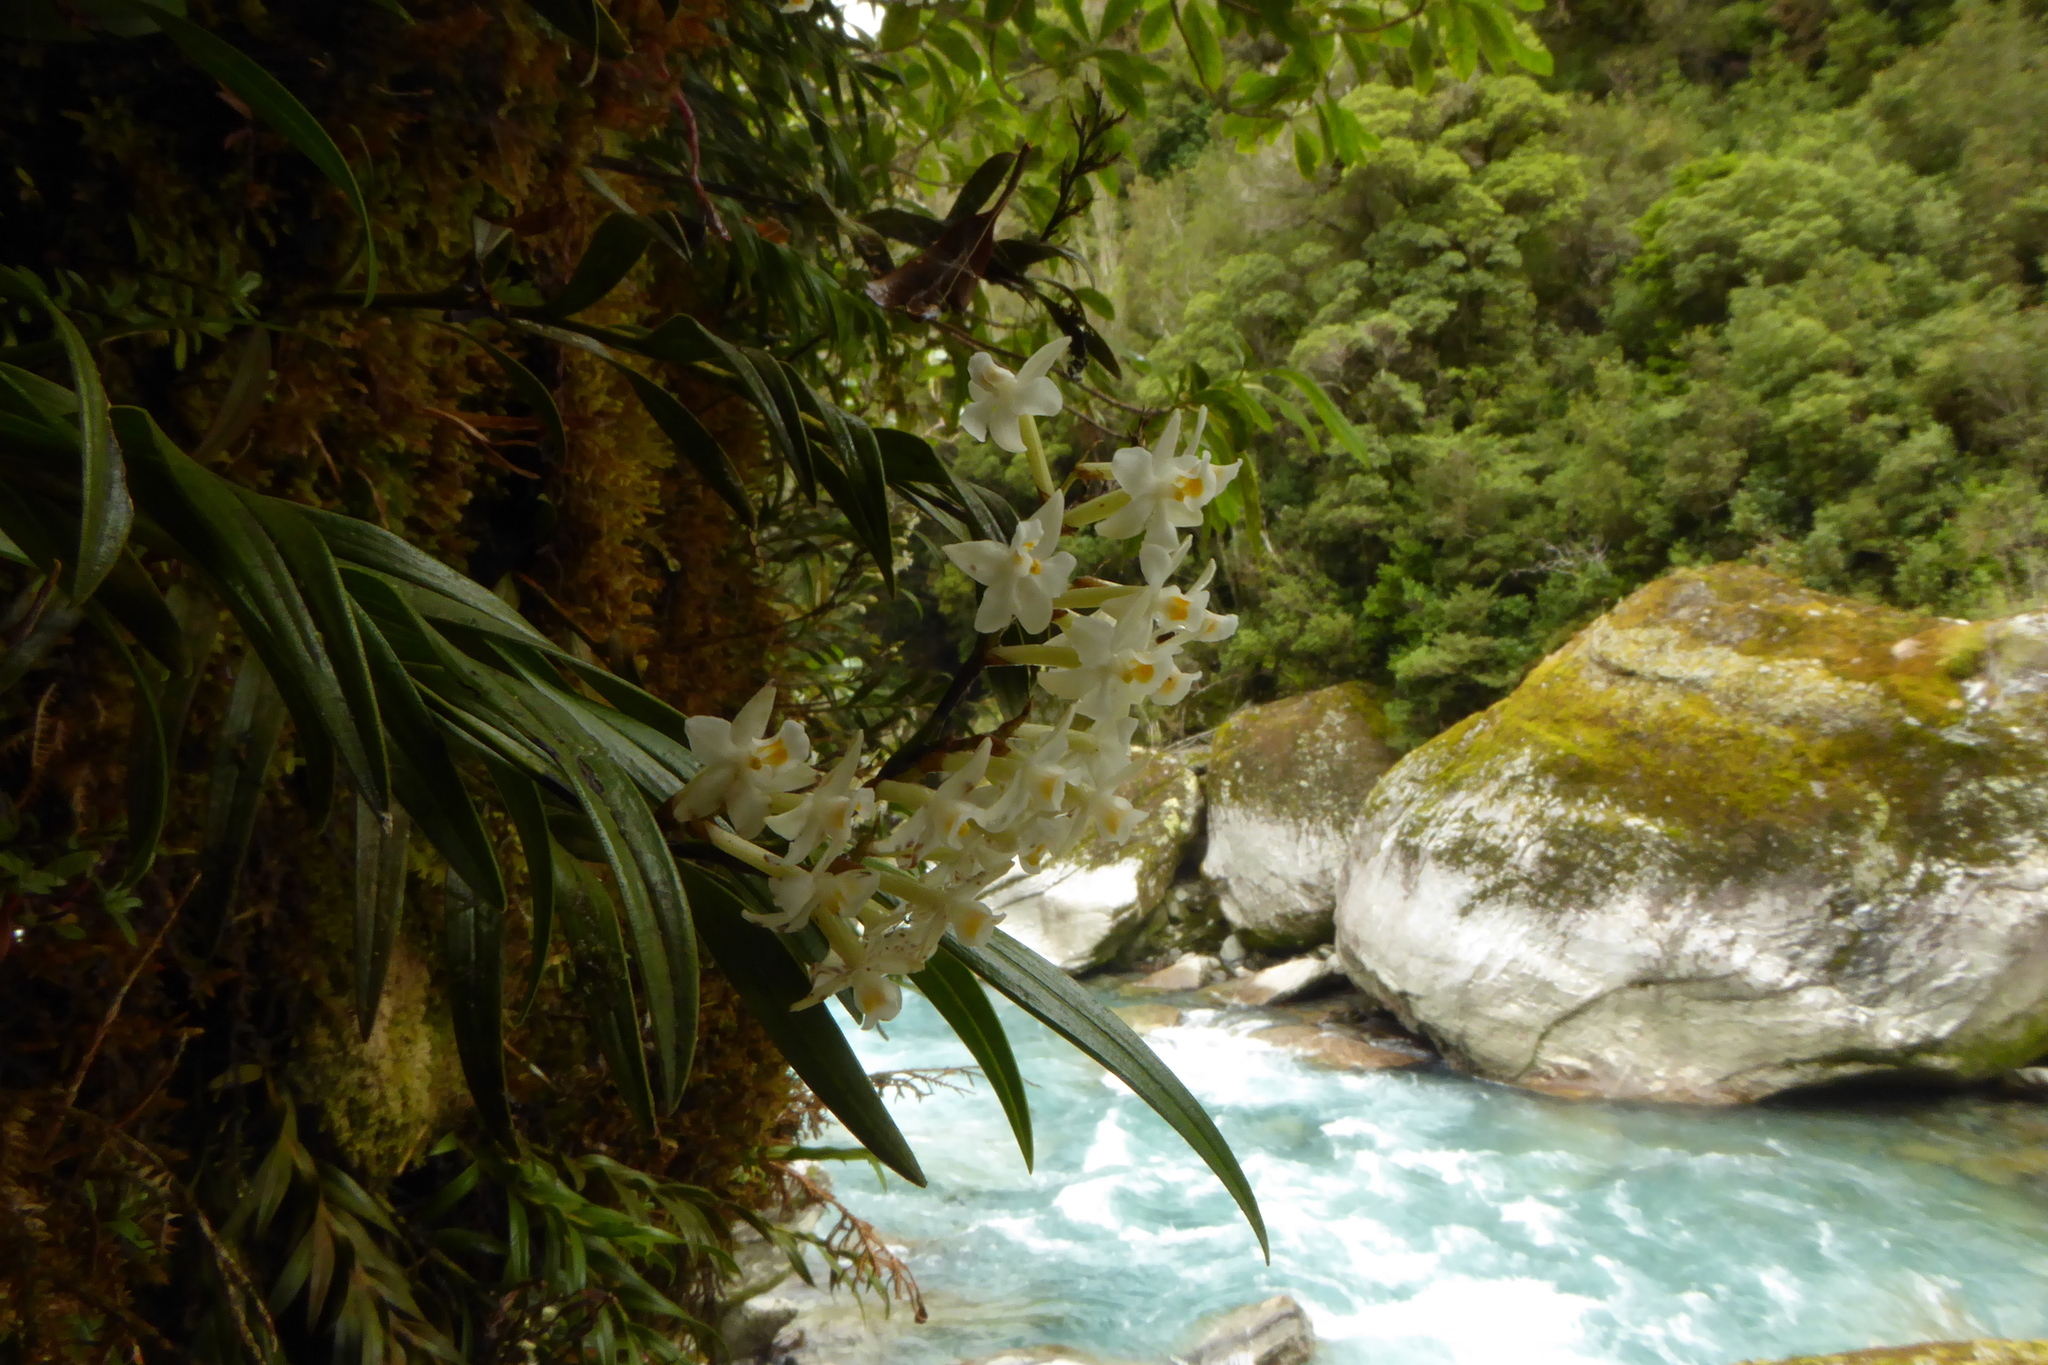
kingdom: Plantae
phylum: Tracheophyta
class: Liliopsida
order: Asparagales
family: Orchidaceae
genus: Earina
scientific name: Earina autumnalis
